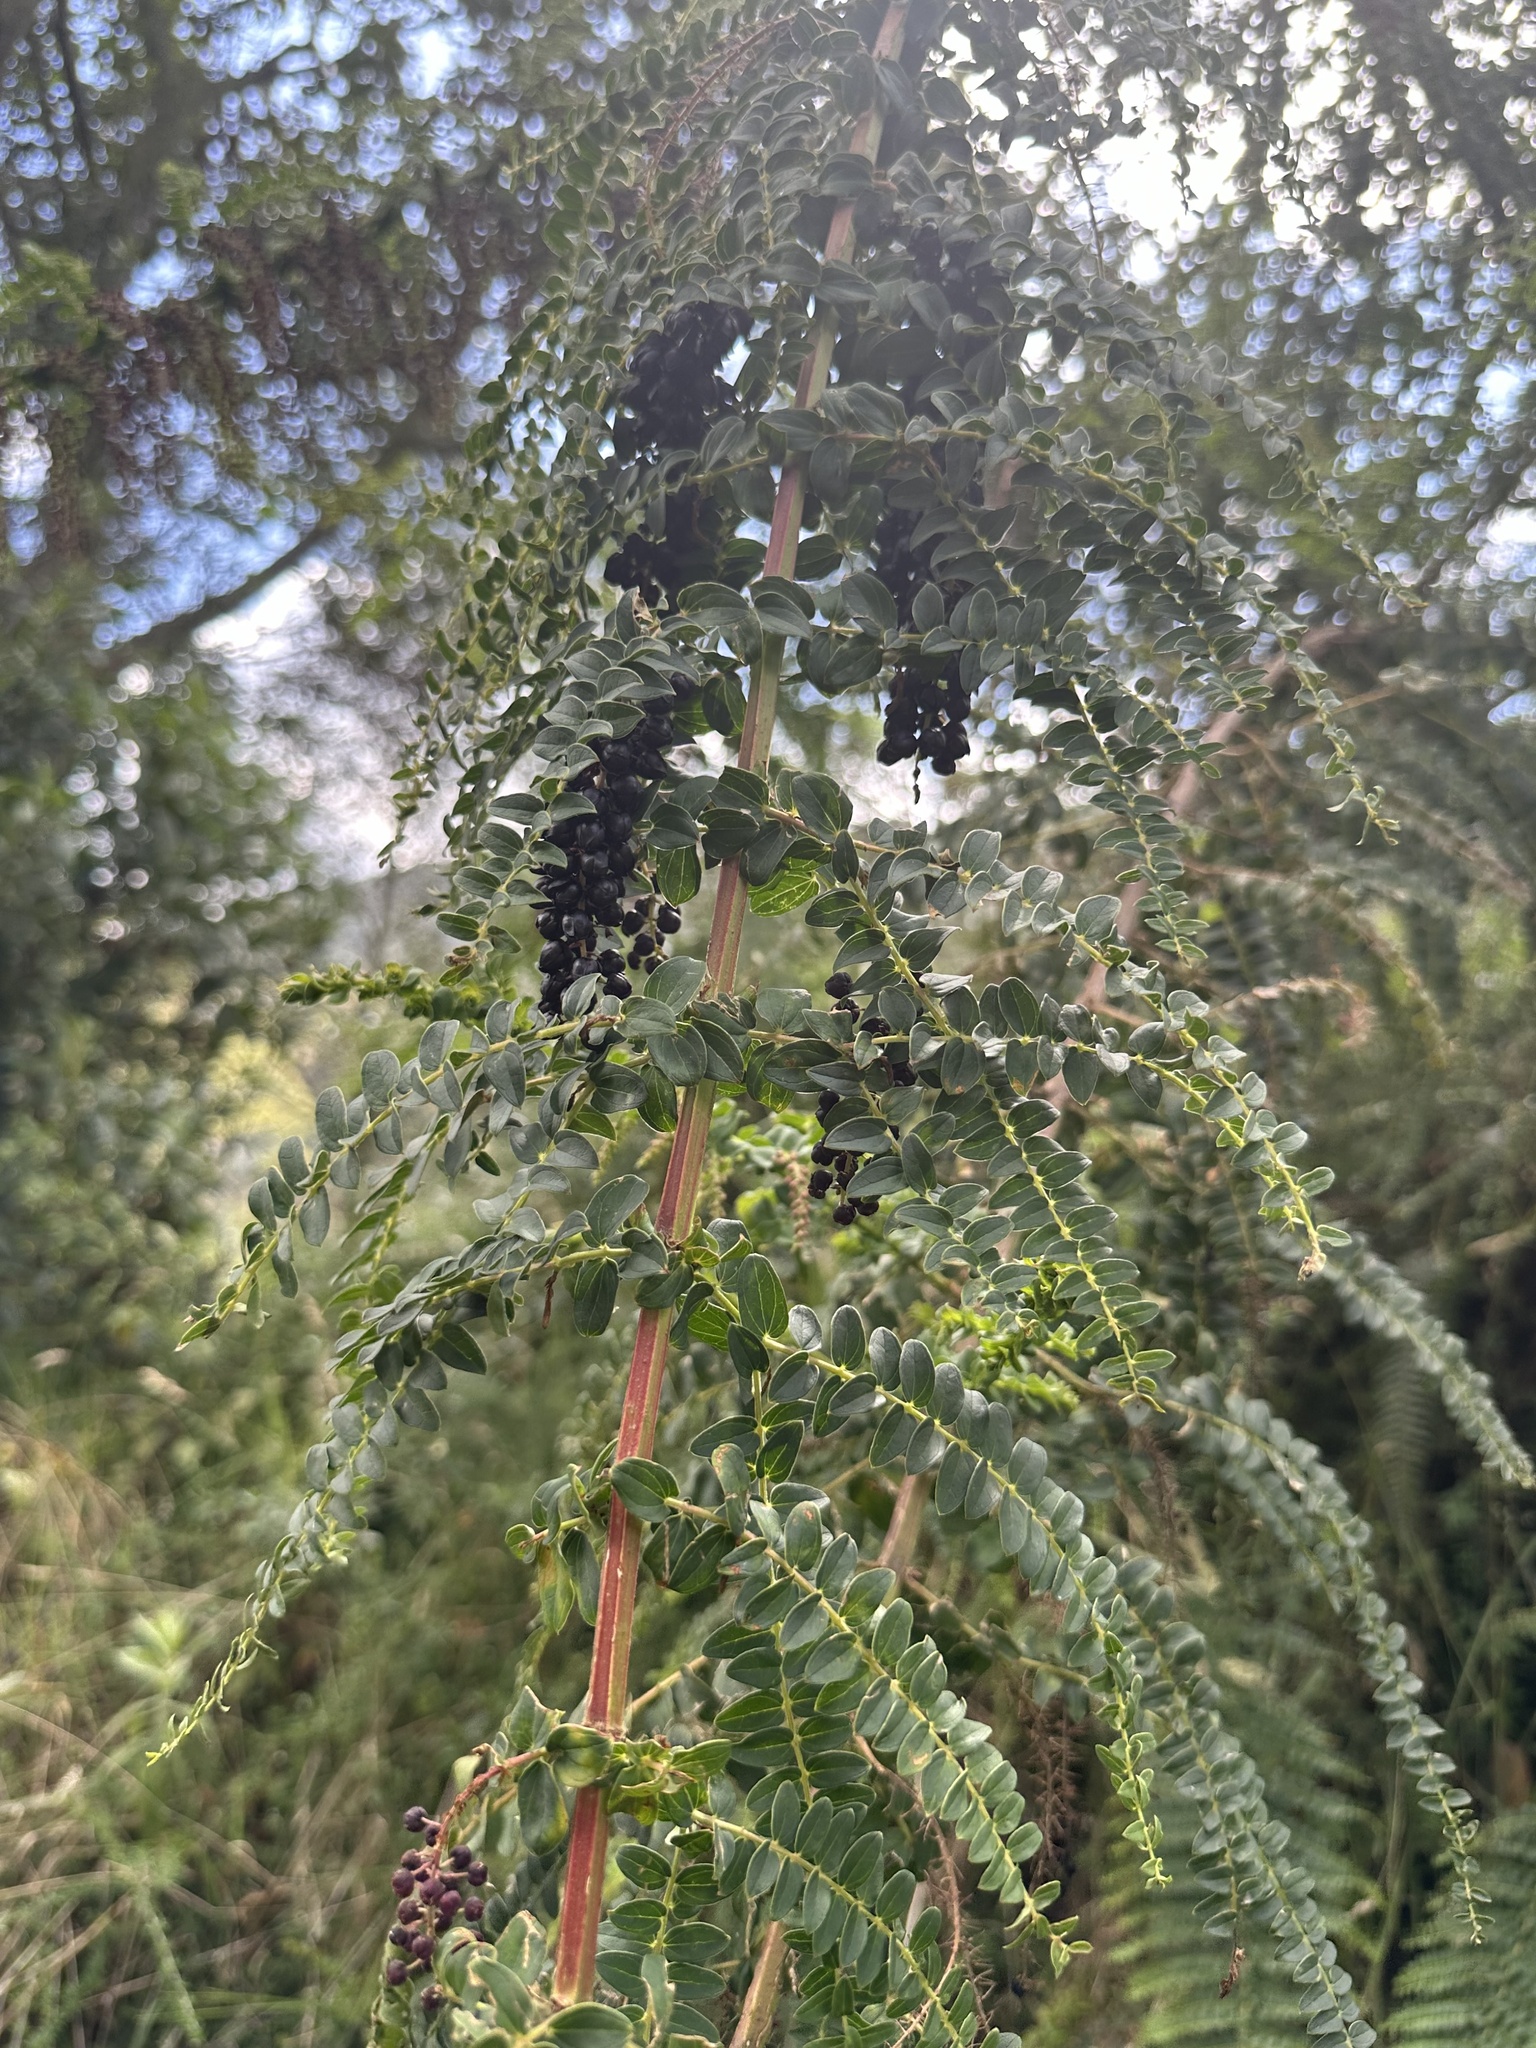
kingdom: Plantae
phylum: Tracheophyta
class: Magnoliopsida
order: Cucurbitales
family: Coriariaceae
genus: Coriaria
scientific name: Coriaria ruscifolia
